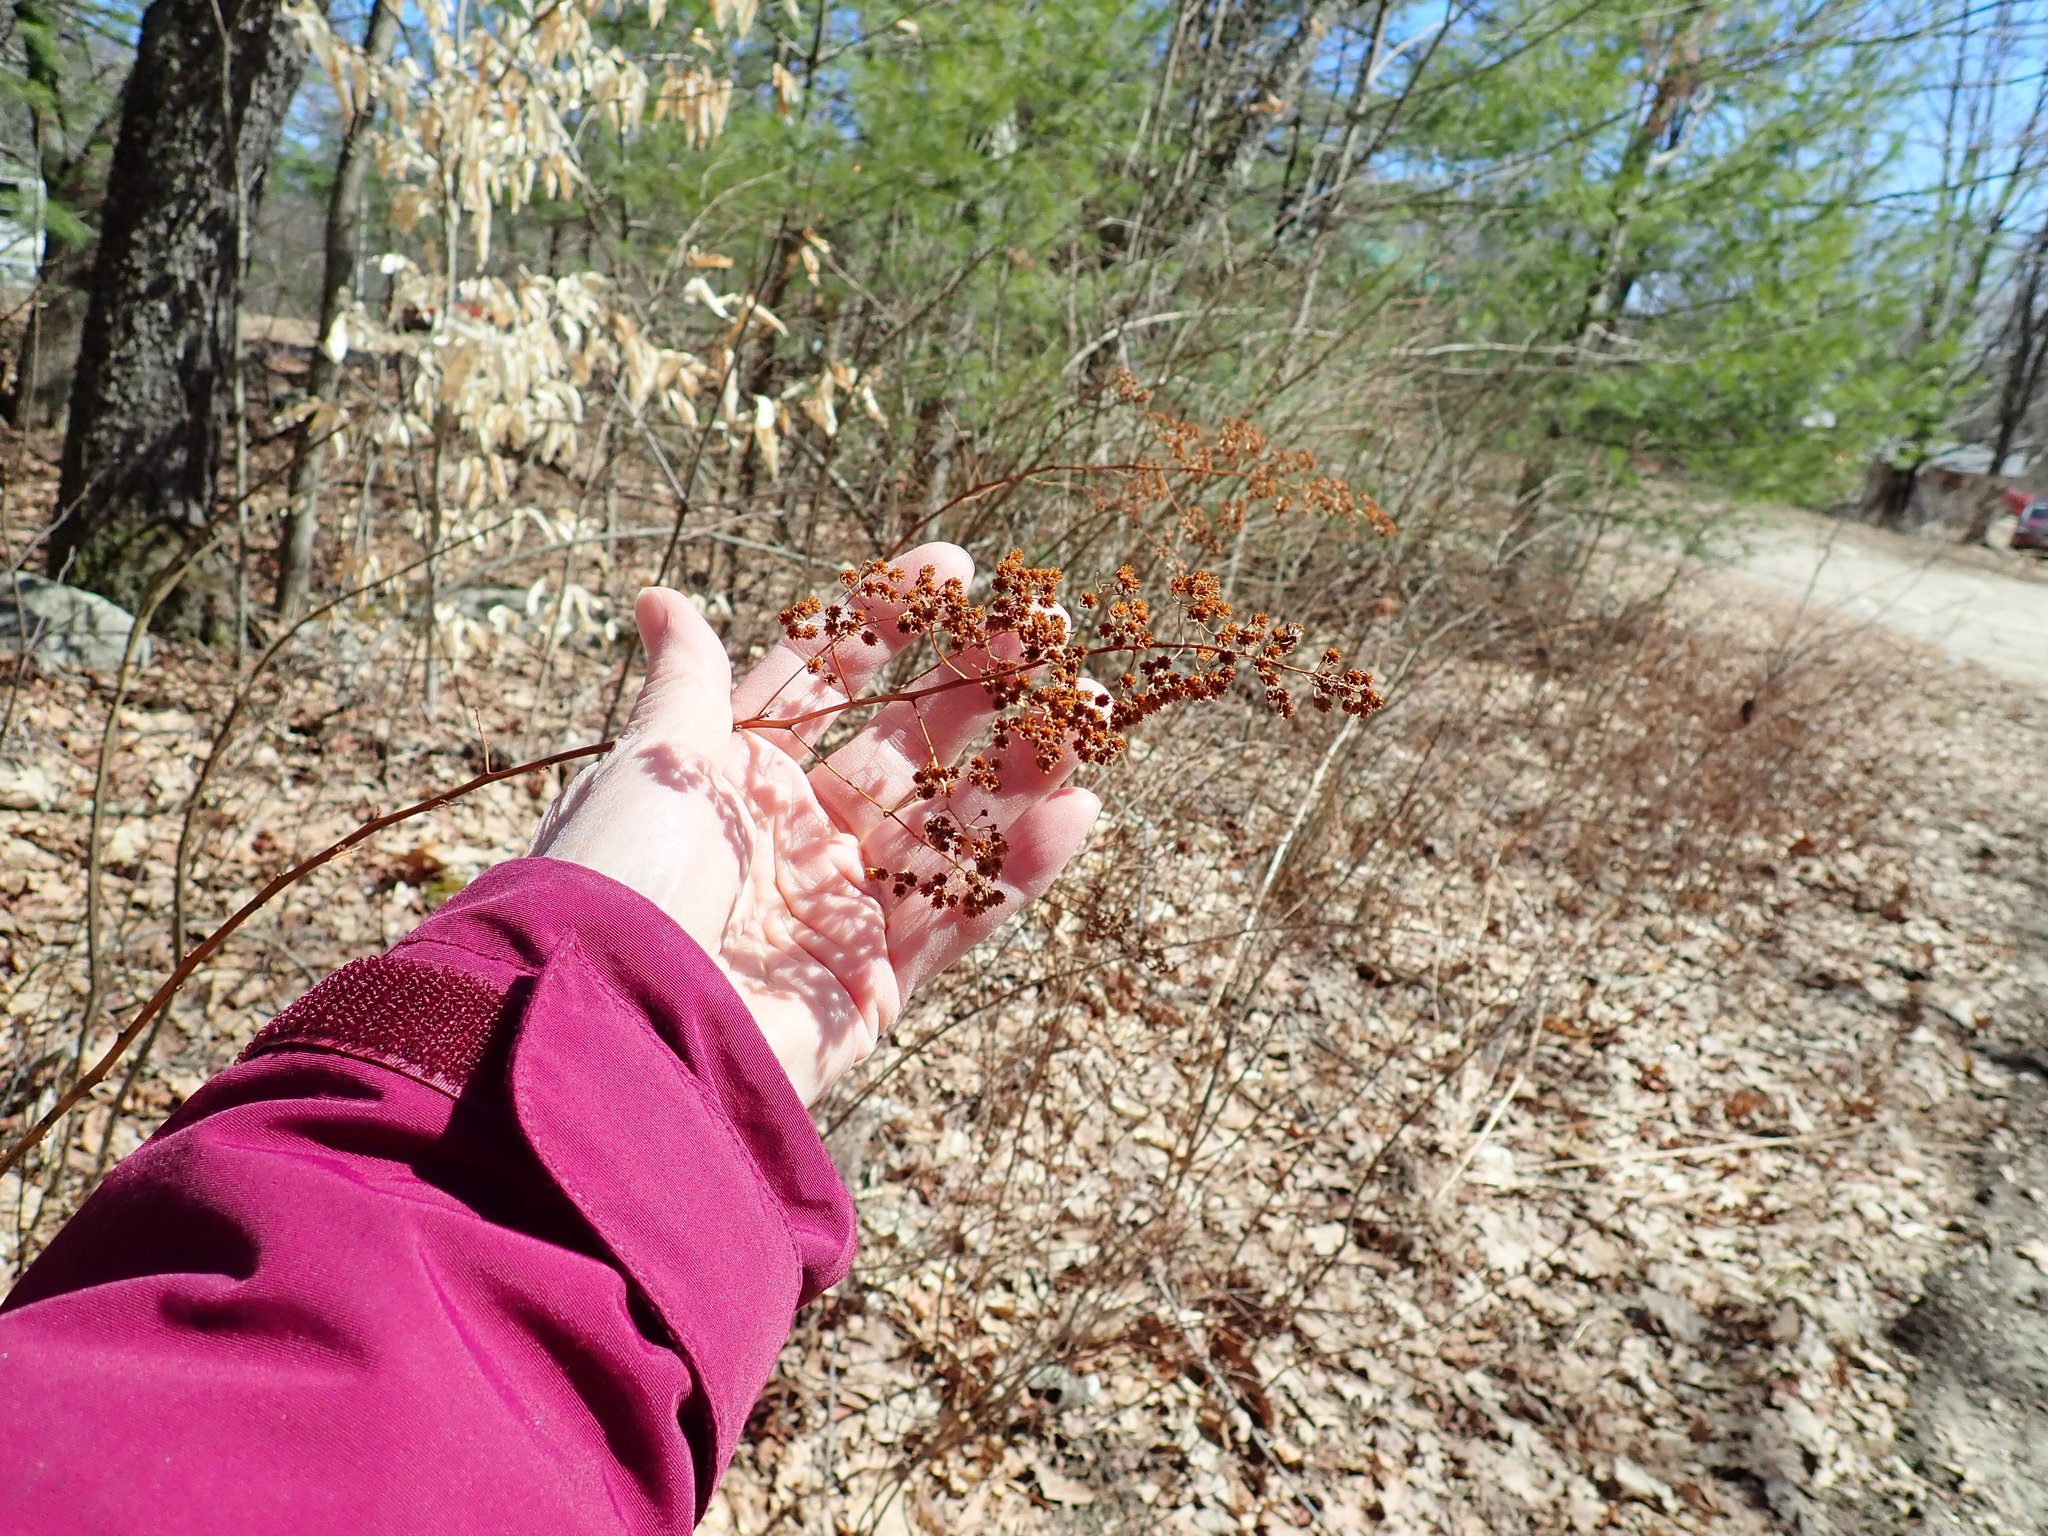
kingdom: Plantae
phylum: Tracheophyta
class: Magnoliopsida
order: Rosales
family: Rosaceae
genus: Spiraea
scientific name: Spiraea alba
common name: Pale bridewort
